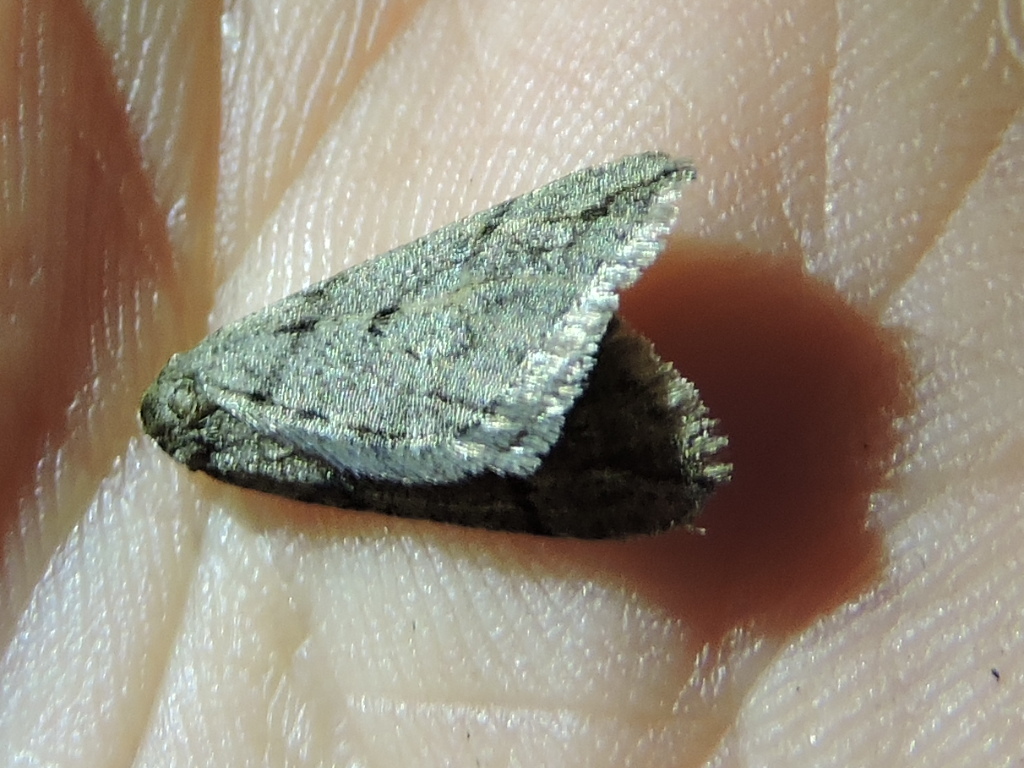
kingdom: Animalia
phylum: Arthropoda
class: Insecta
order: Lepidoptera
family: Geometridae
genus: Paleacrita
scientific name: Paleacrita vernata
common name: Spring cankerworm
